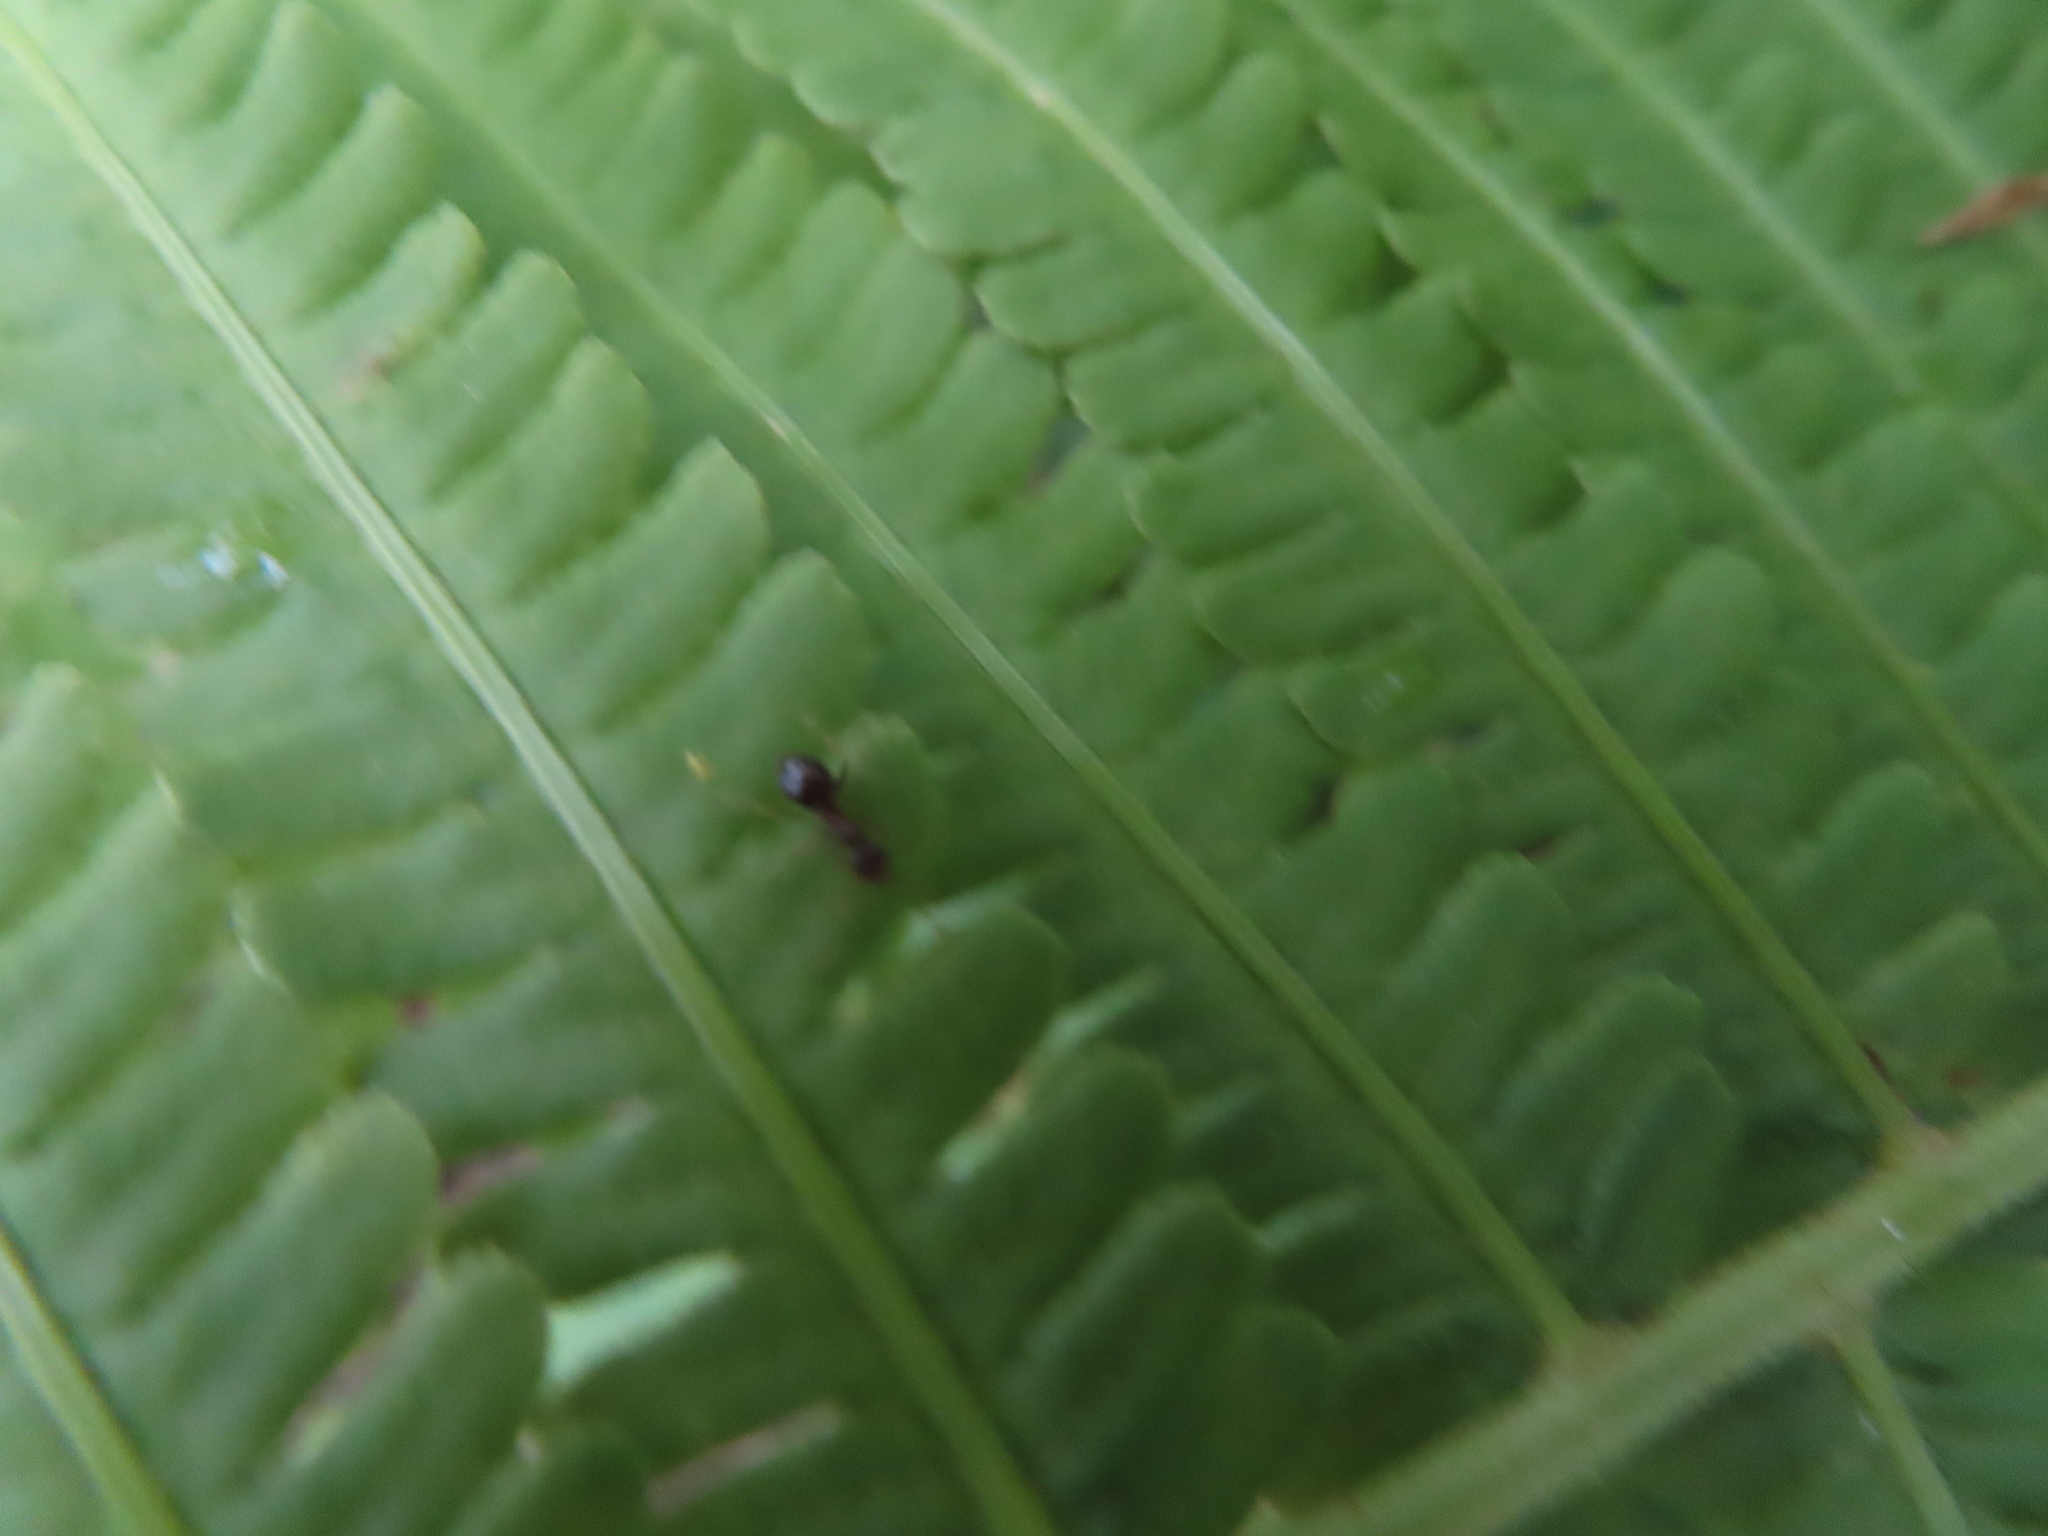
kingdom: Animalia
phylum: Arthropoda
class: Insecta
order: Hymenoptera
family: Formicidae
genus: Prenolepis
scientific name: Prenolepis imparis
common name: Small honey ant
